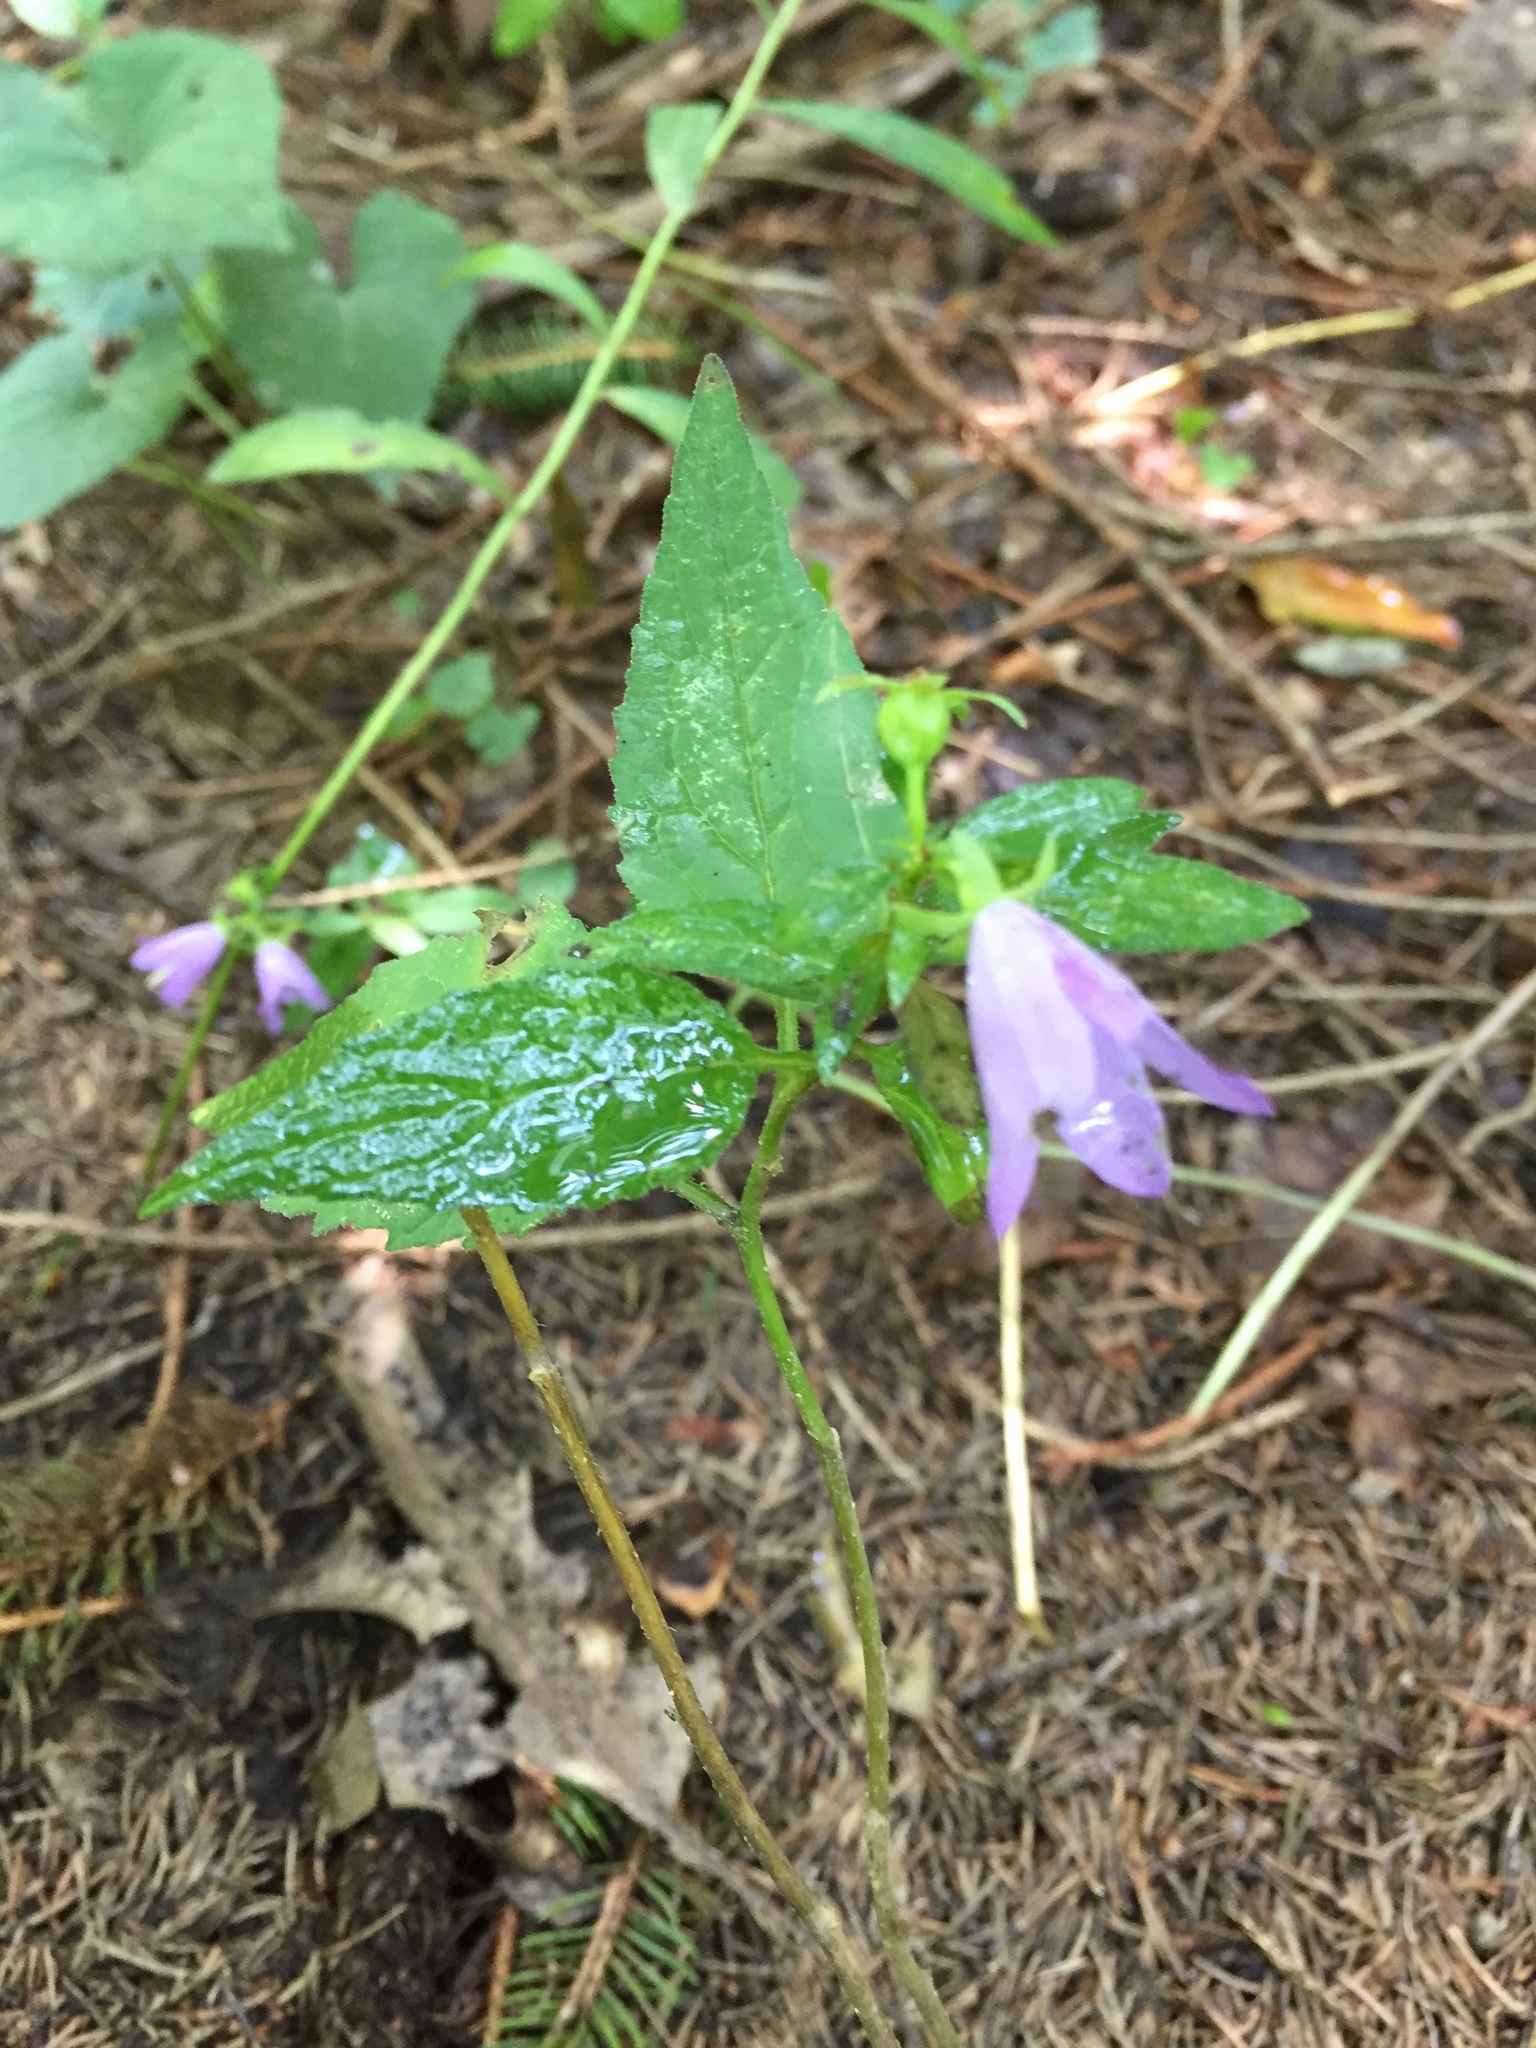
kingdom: Plantae
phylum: Tracheophyta
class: Magnoliopsida
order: Asterales
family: Campanulaceae
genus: Campanula
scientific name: Campanula rapunculoides
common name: Creeping bellflower
